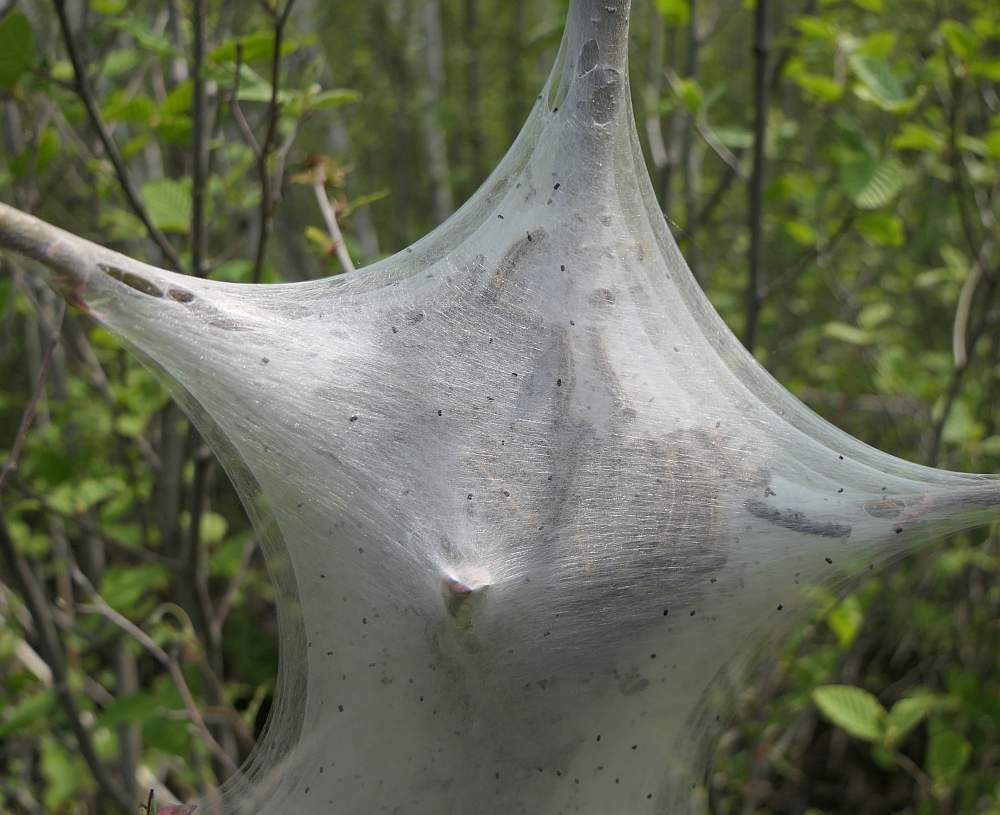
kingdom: Animalia
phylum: Arthropoda
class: Insecta
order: Lepidoptera
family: Lasiocampidae
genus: Malacosoma
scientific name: Malacosoma americana
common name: Eastern tent caterpillar moth
